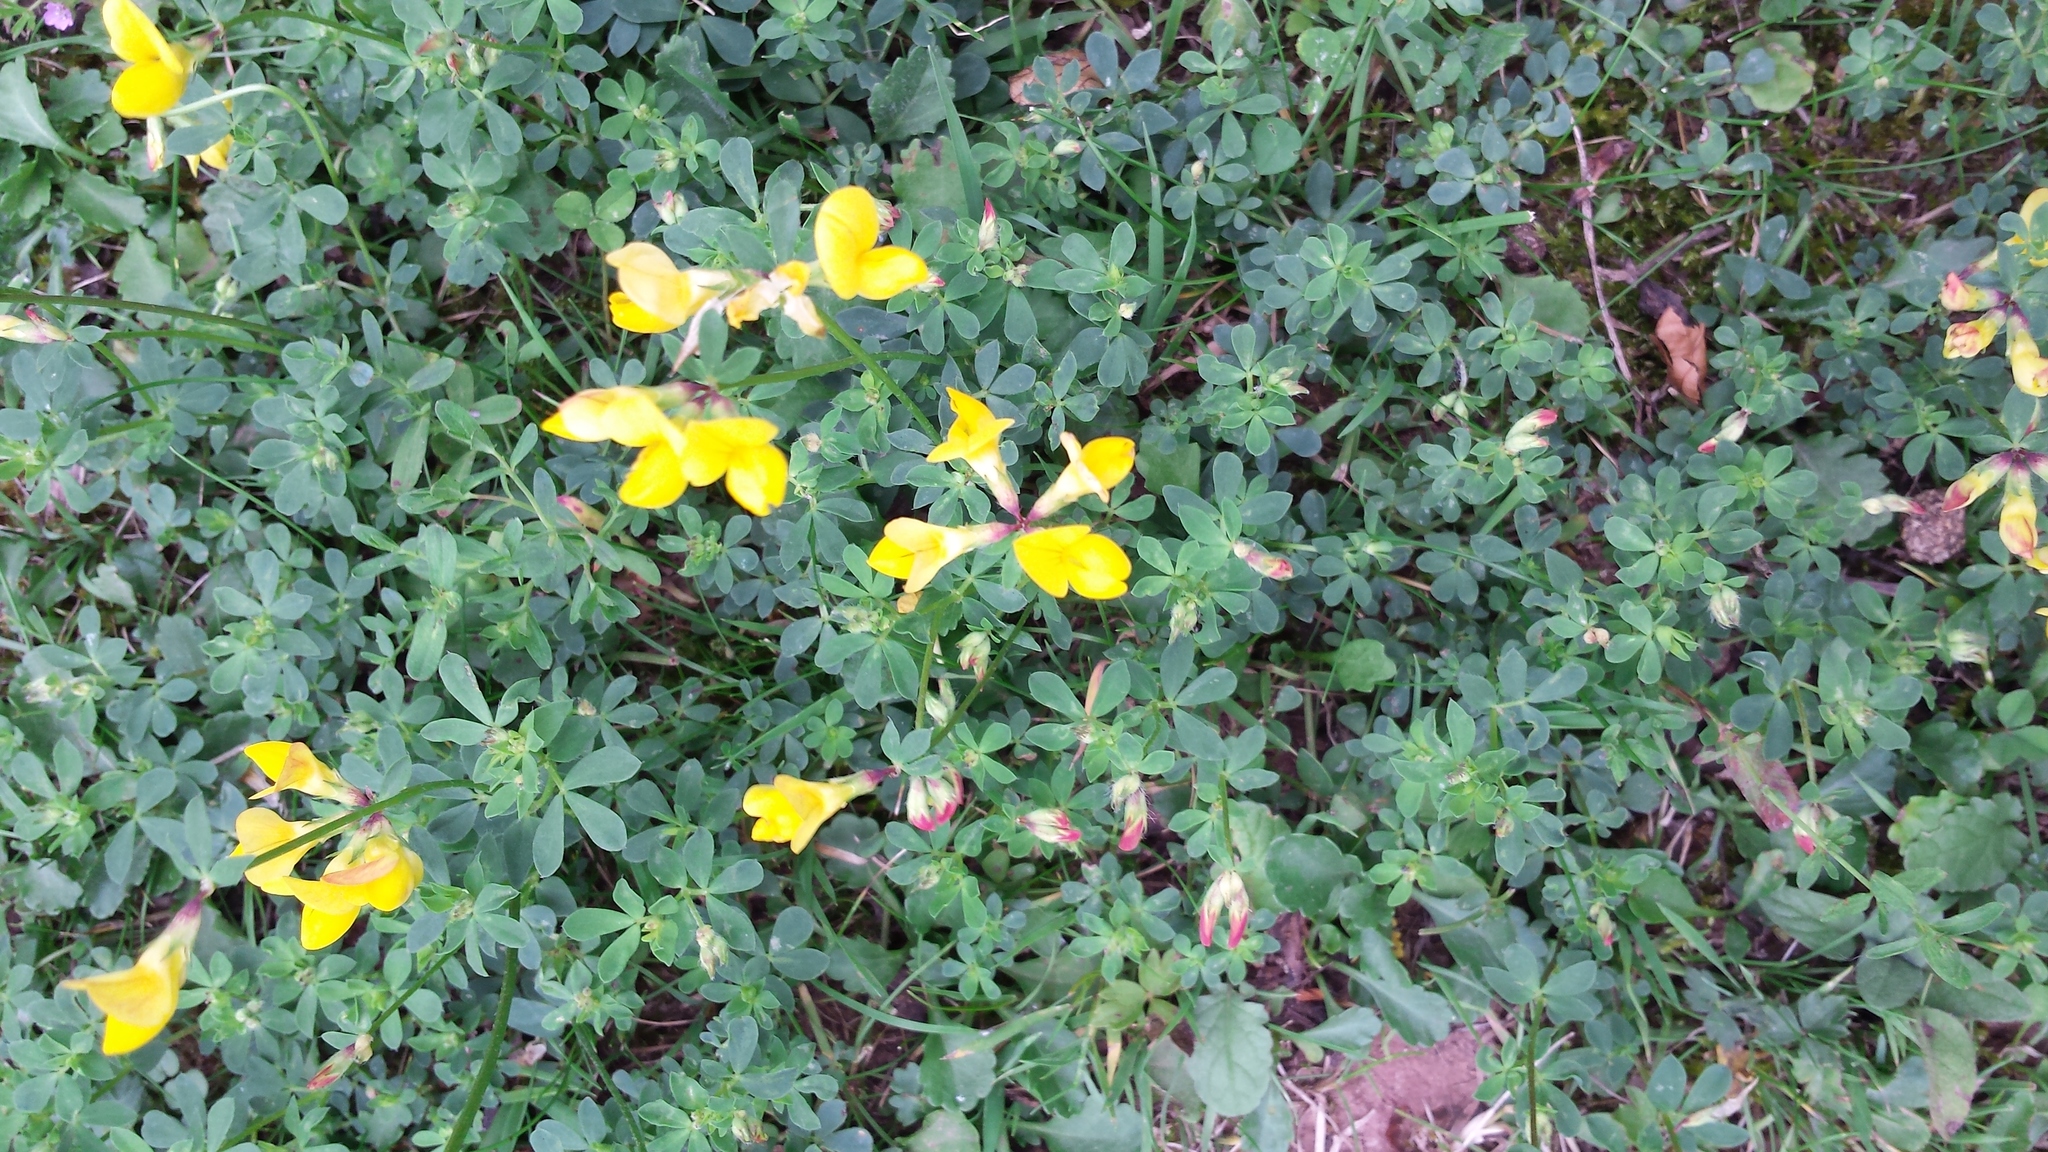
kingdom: Plantae
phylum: Tracheophyta
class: Magnoliopsida
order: Fabales
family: Fabaceae
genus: Lotus
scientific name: Lotus corniculatus
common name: Common bird's-foot-trefoil
